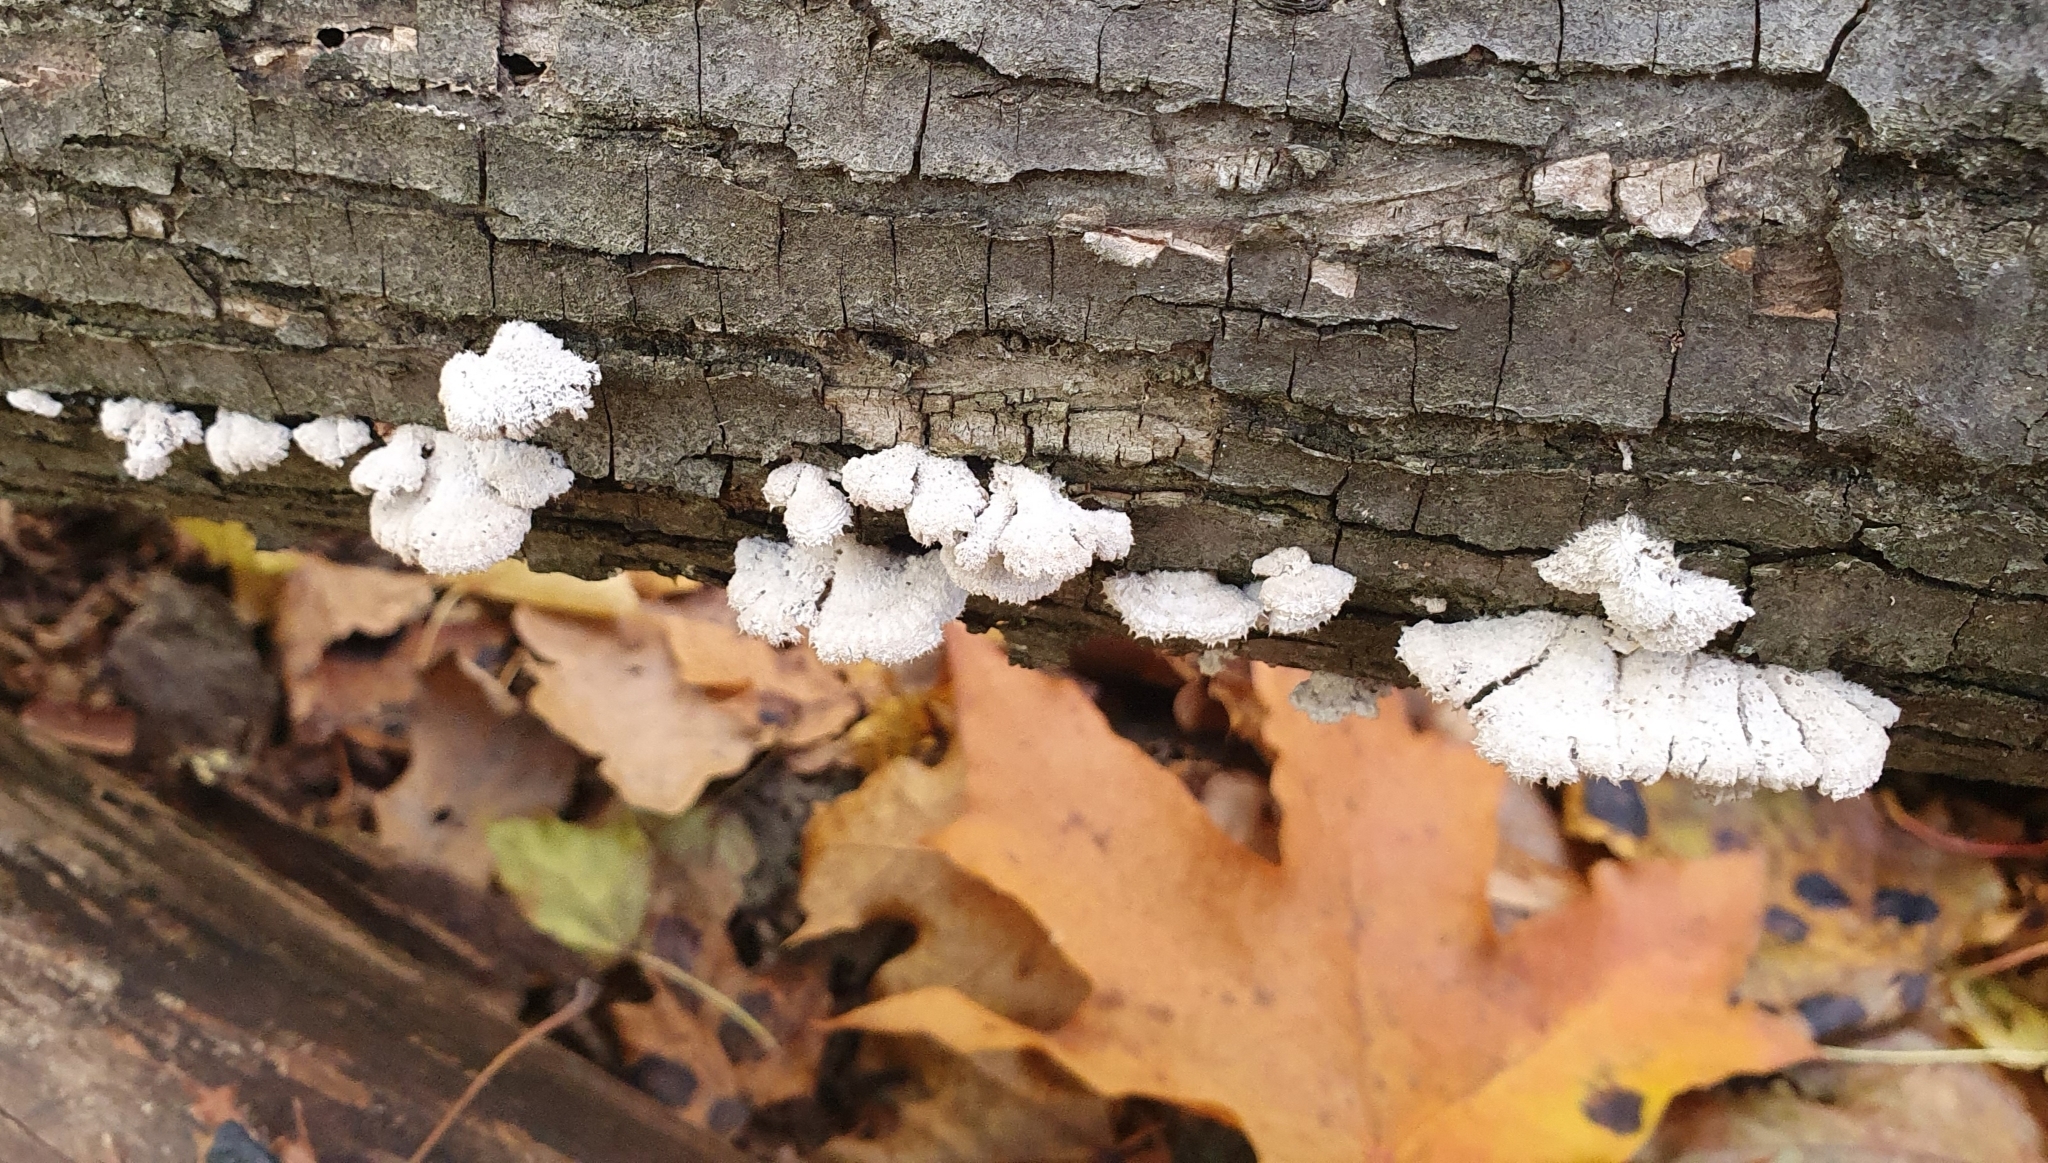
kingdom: Fungi
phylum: Basidiomycota
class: Agaricomycetes
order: Agaricales
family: Schizophyllaceae
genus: Schizophyllum
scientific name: Schizophyllum commune
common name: Common porecrust
